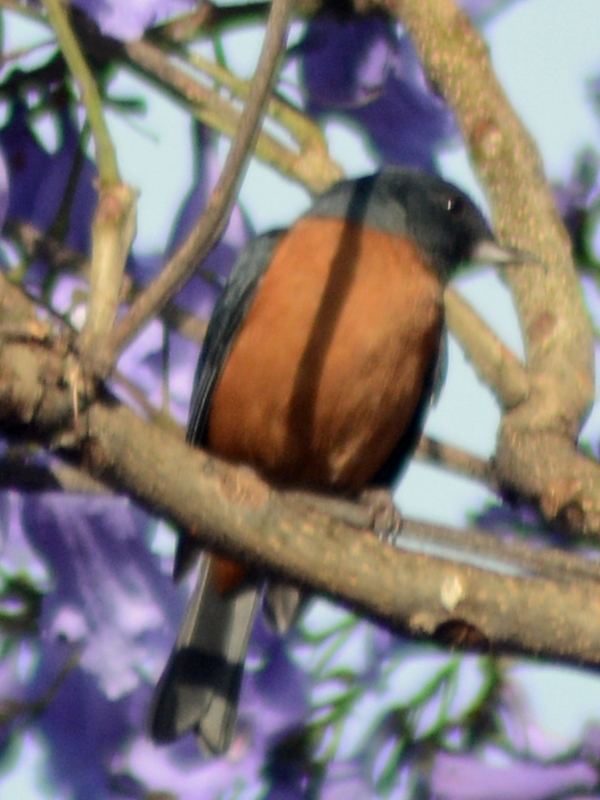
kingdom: Animalia
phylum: Chordata
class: Aves
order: Passeriformes
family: Thraupidae
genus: Diglossa
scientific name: Diglossa baritula
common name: Cinnamon-bellied flowerpiercer
